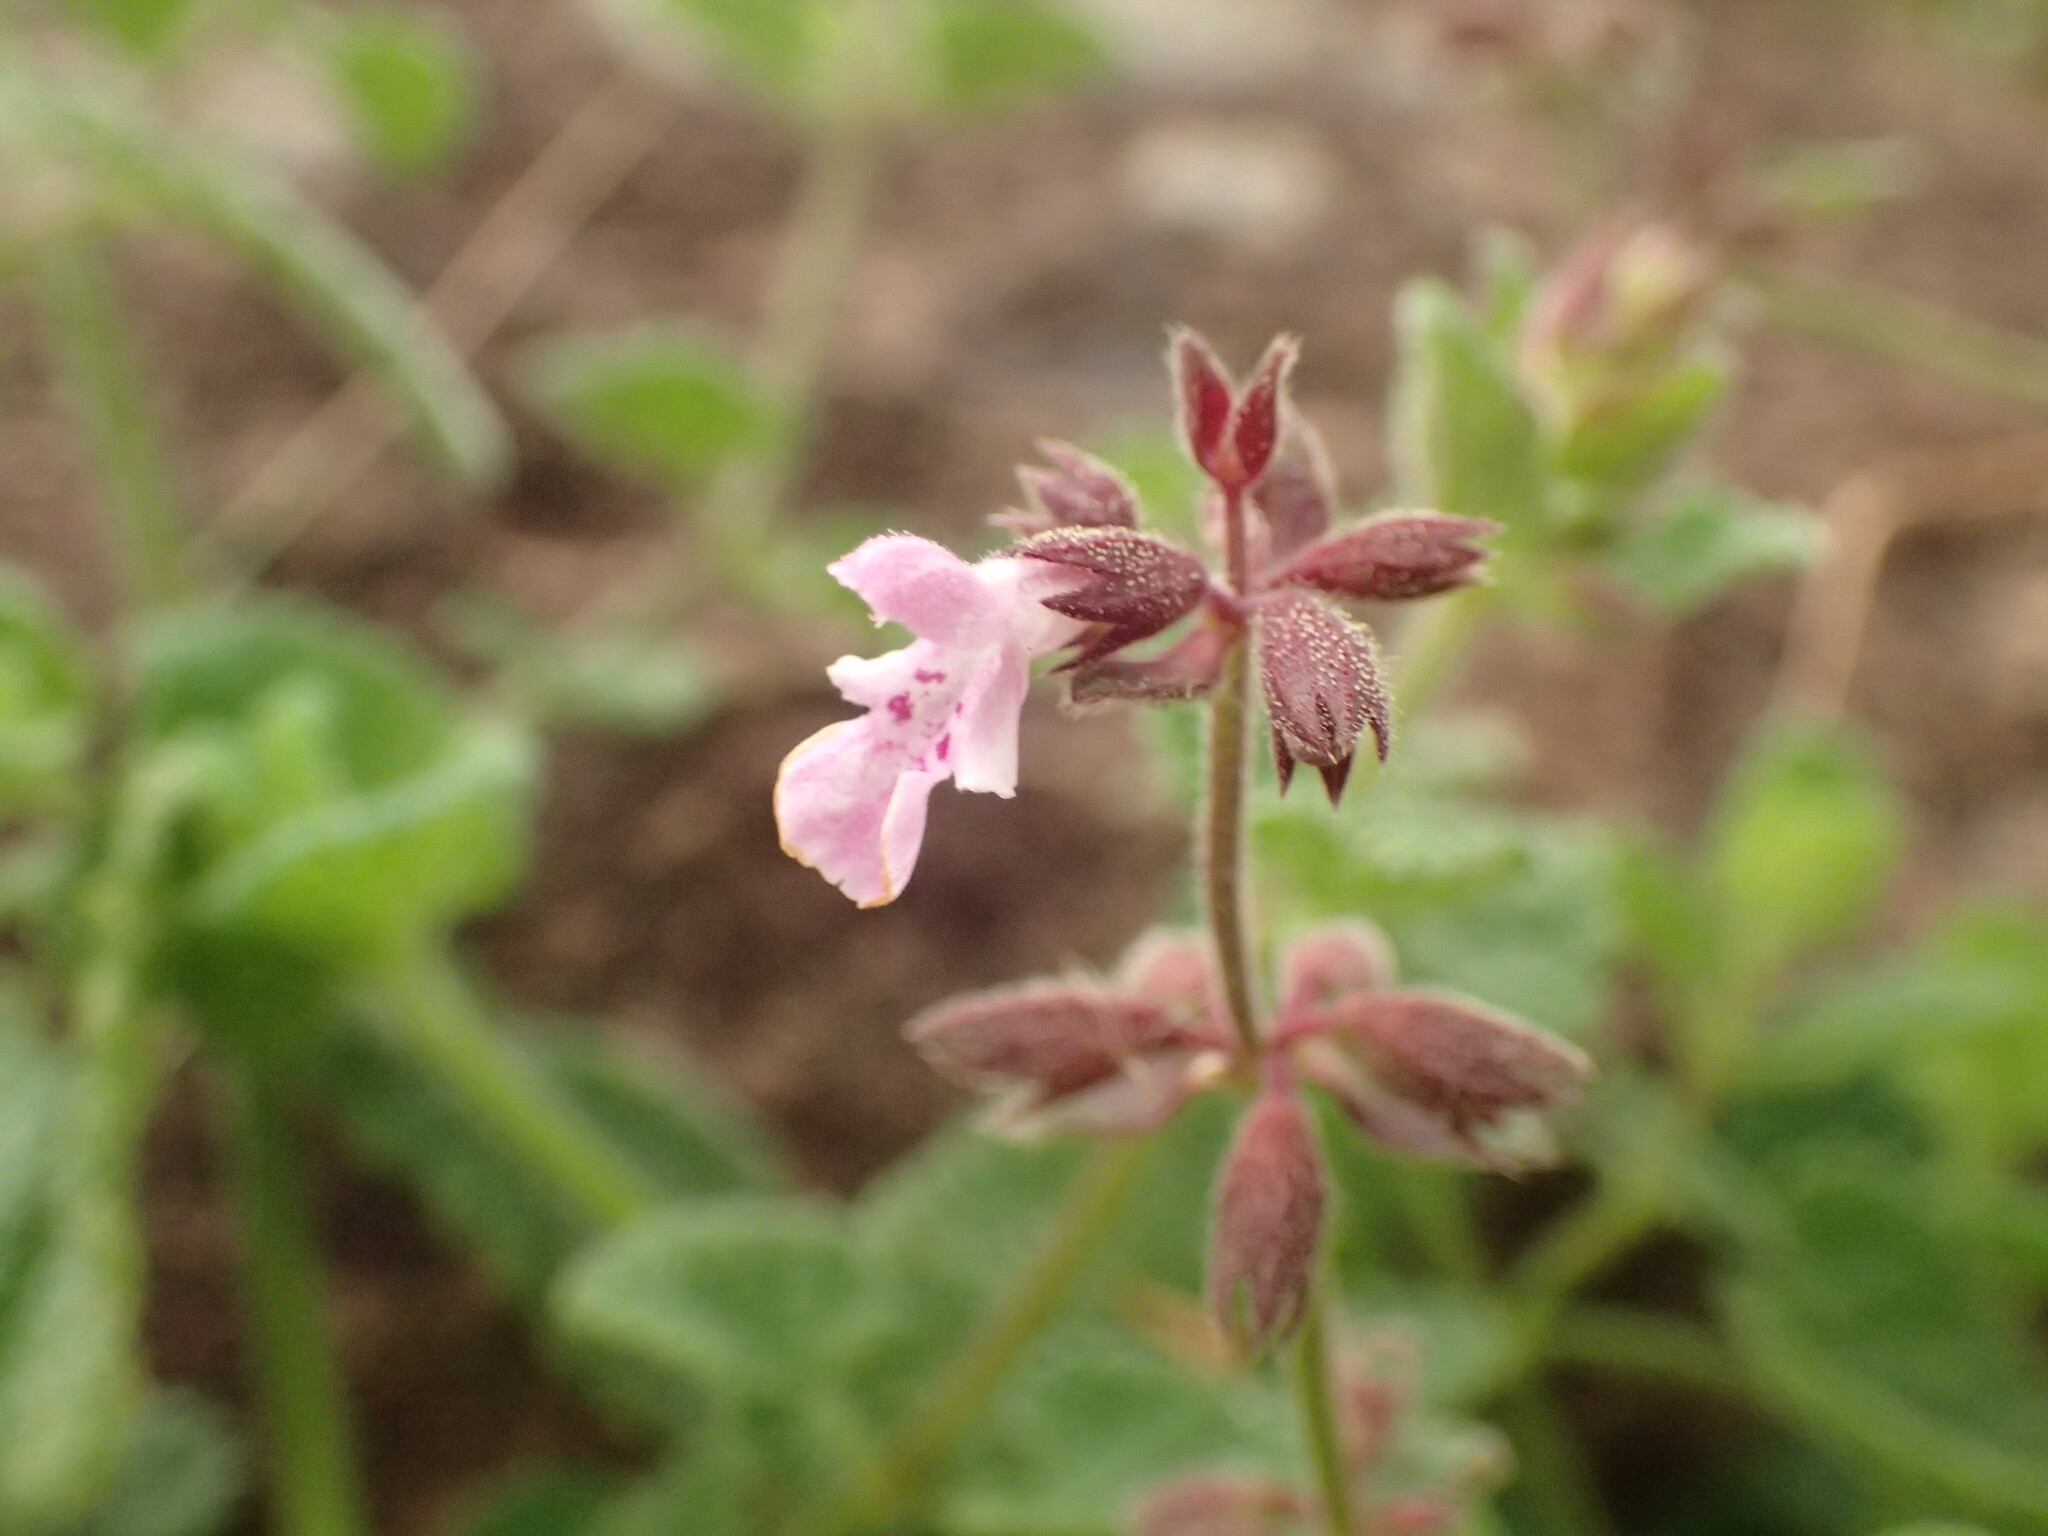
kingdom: Plantae
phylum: Tracheophyta
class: Magnoliopsida
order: Lamiales
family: Lamiaceae
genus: Stachys
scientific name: Stachys aethiopica
